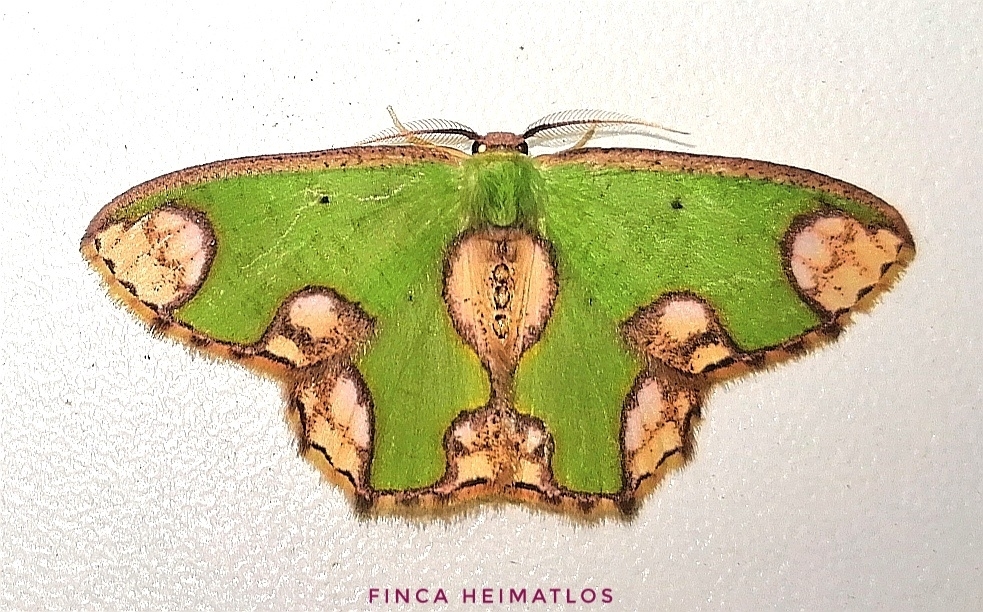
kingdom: Animalia
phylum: Arthropoda
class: Insecta
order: Lepidoptera
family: Geometridae
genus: Oospila
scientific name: Oospila delphinata
